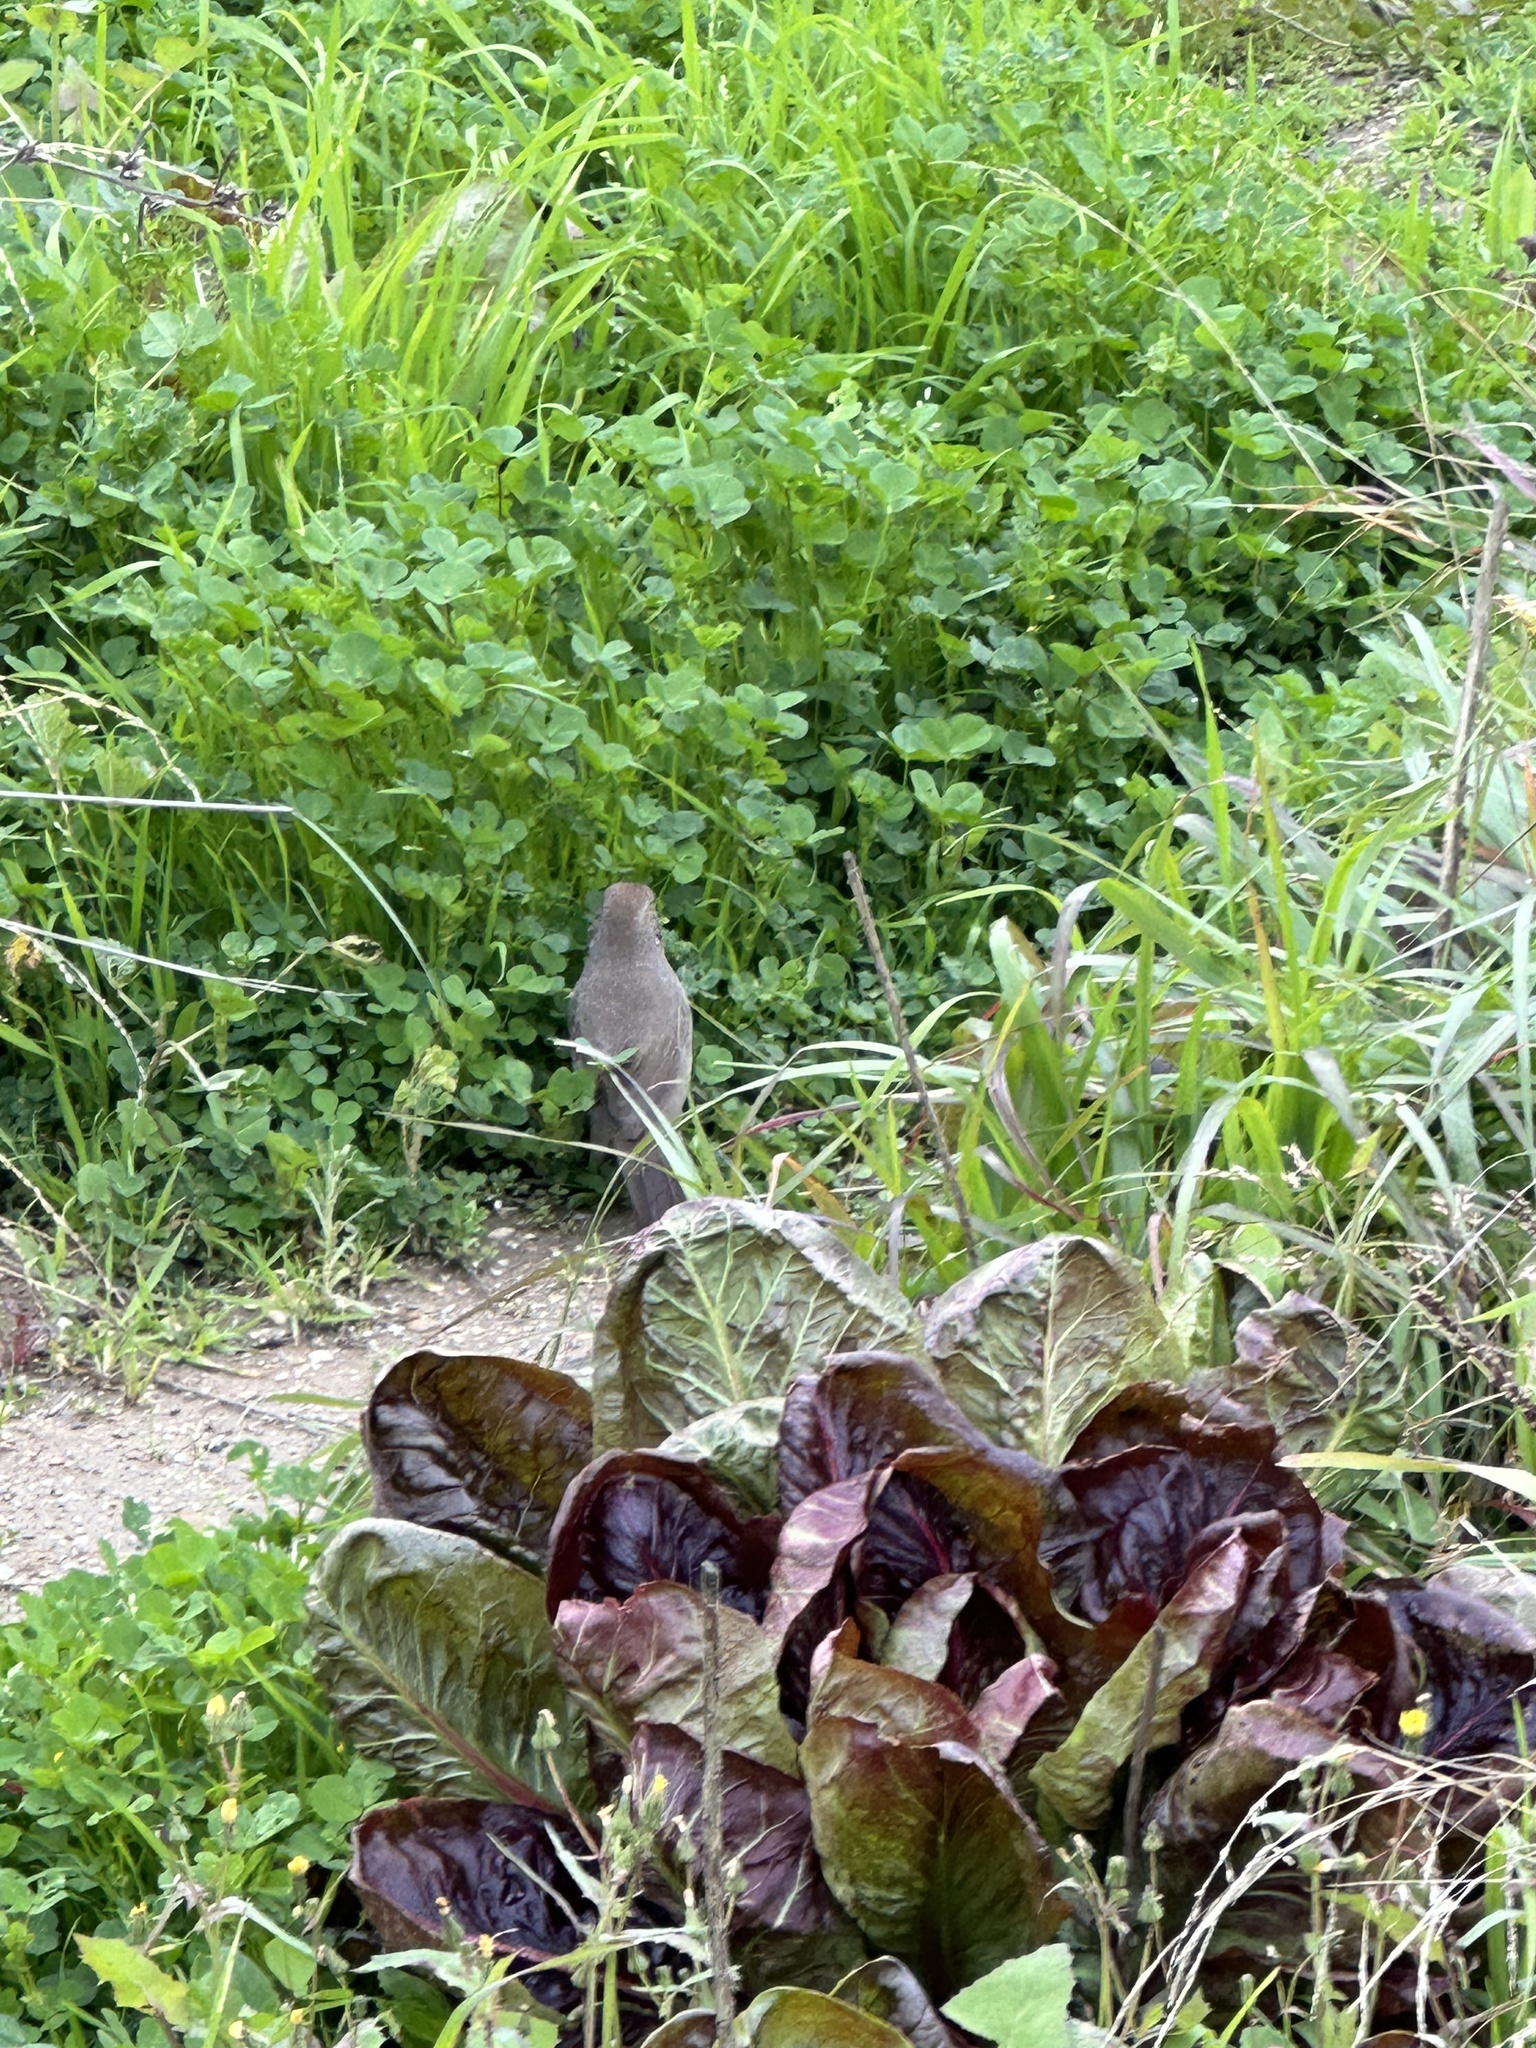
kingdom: Animalia
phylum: Chordata
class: Aves
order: Passeriformes
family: Passerellidae
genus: Melozone
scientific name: Melozone crissalis
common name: California towhee
